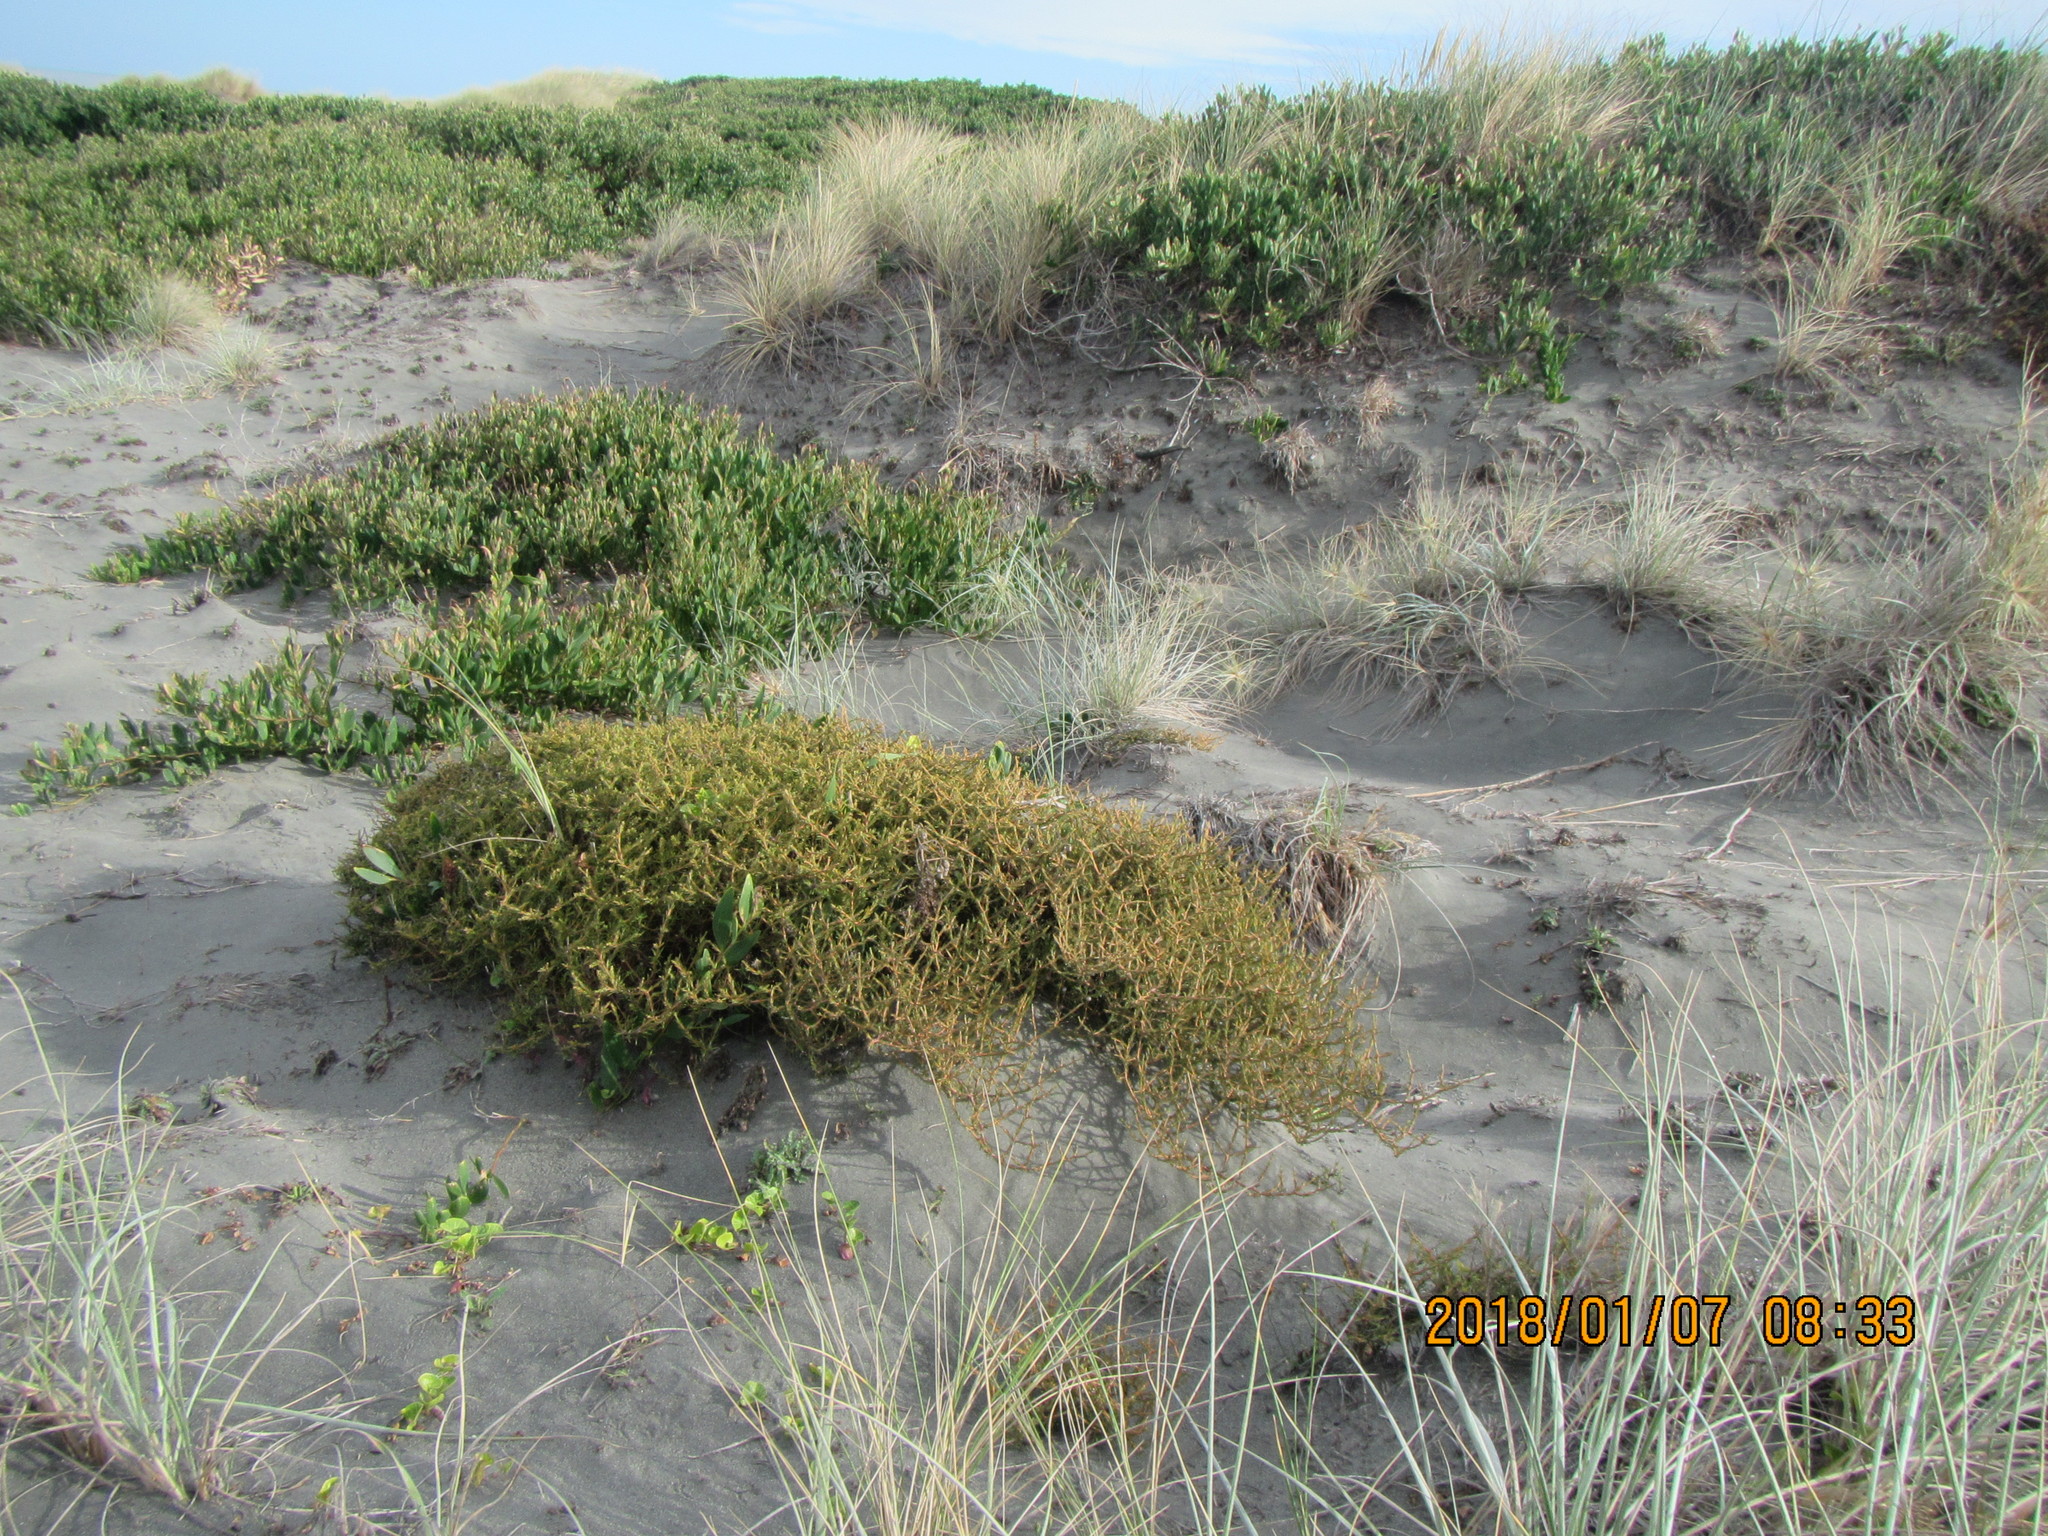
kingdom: Plantae
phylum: Tracheophyta
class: Magnoliopsida
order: Gentianales
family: Rubiaceae
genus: Coprosma
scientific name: Coprosma acerosa
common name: Sand coprosma
